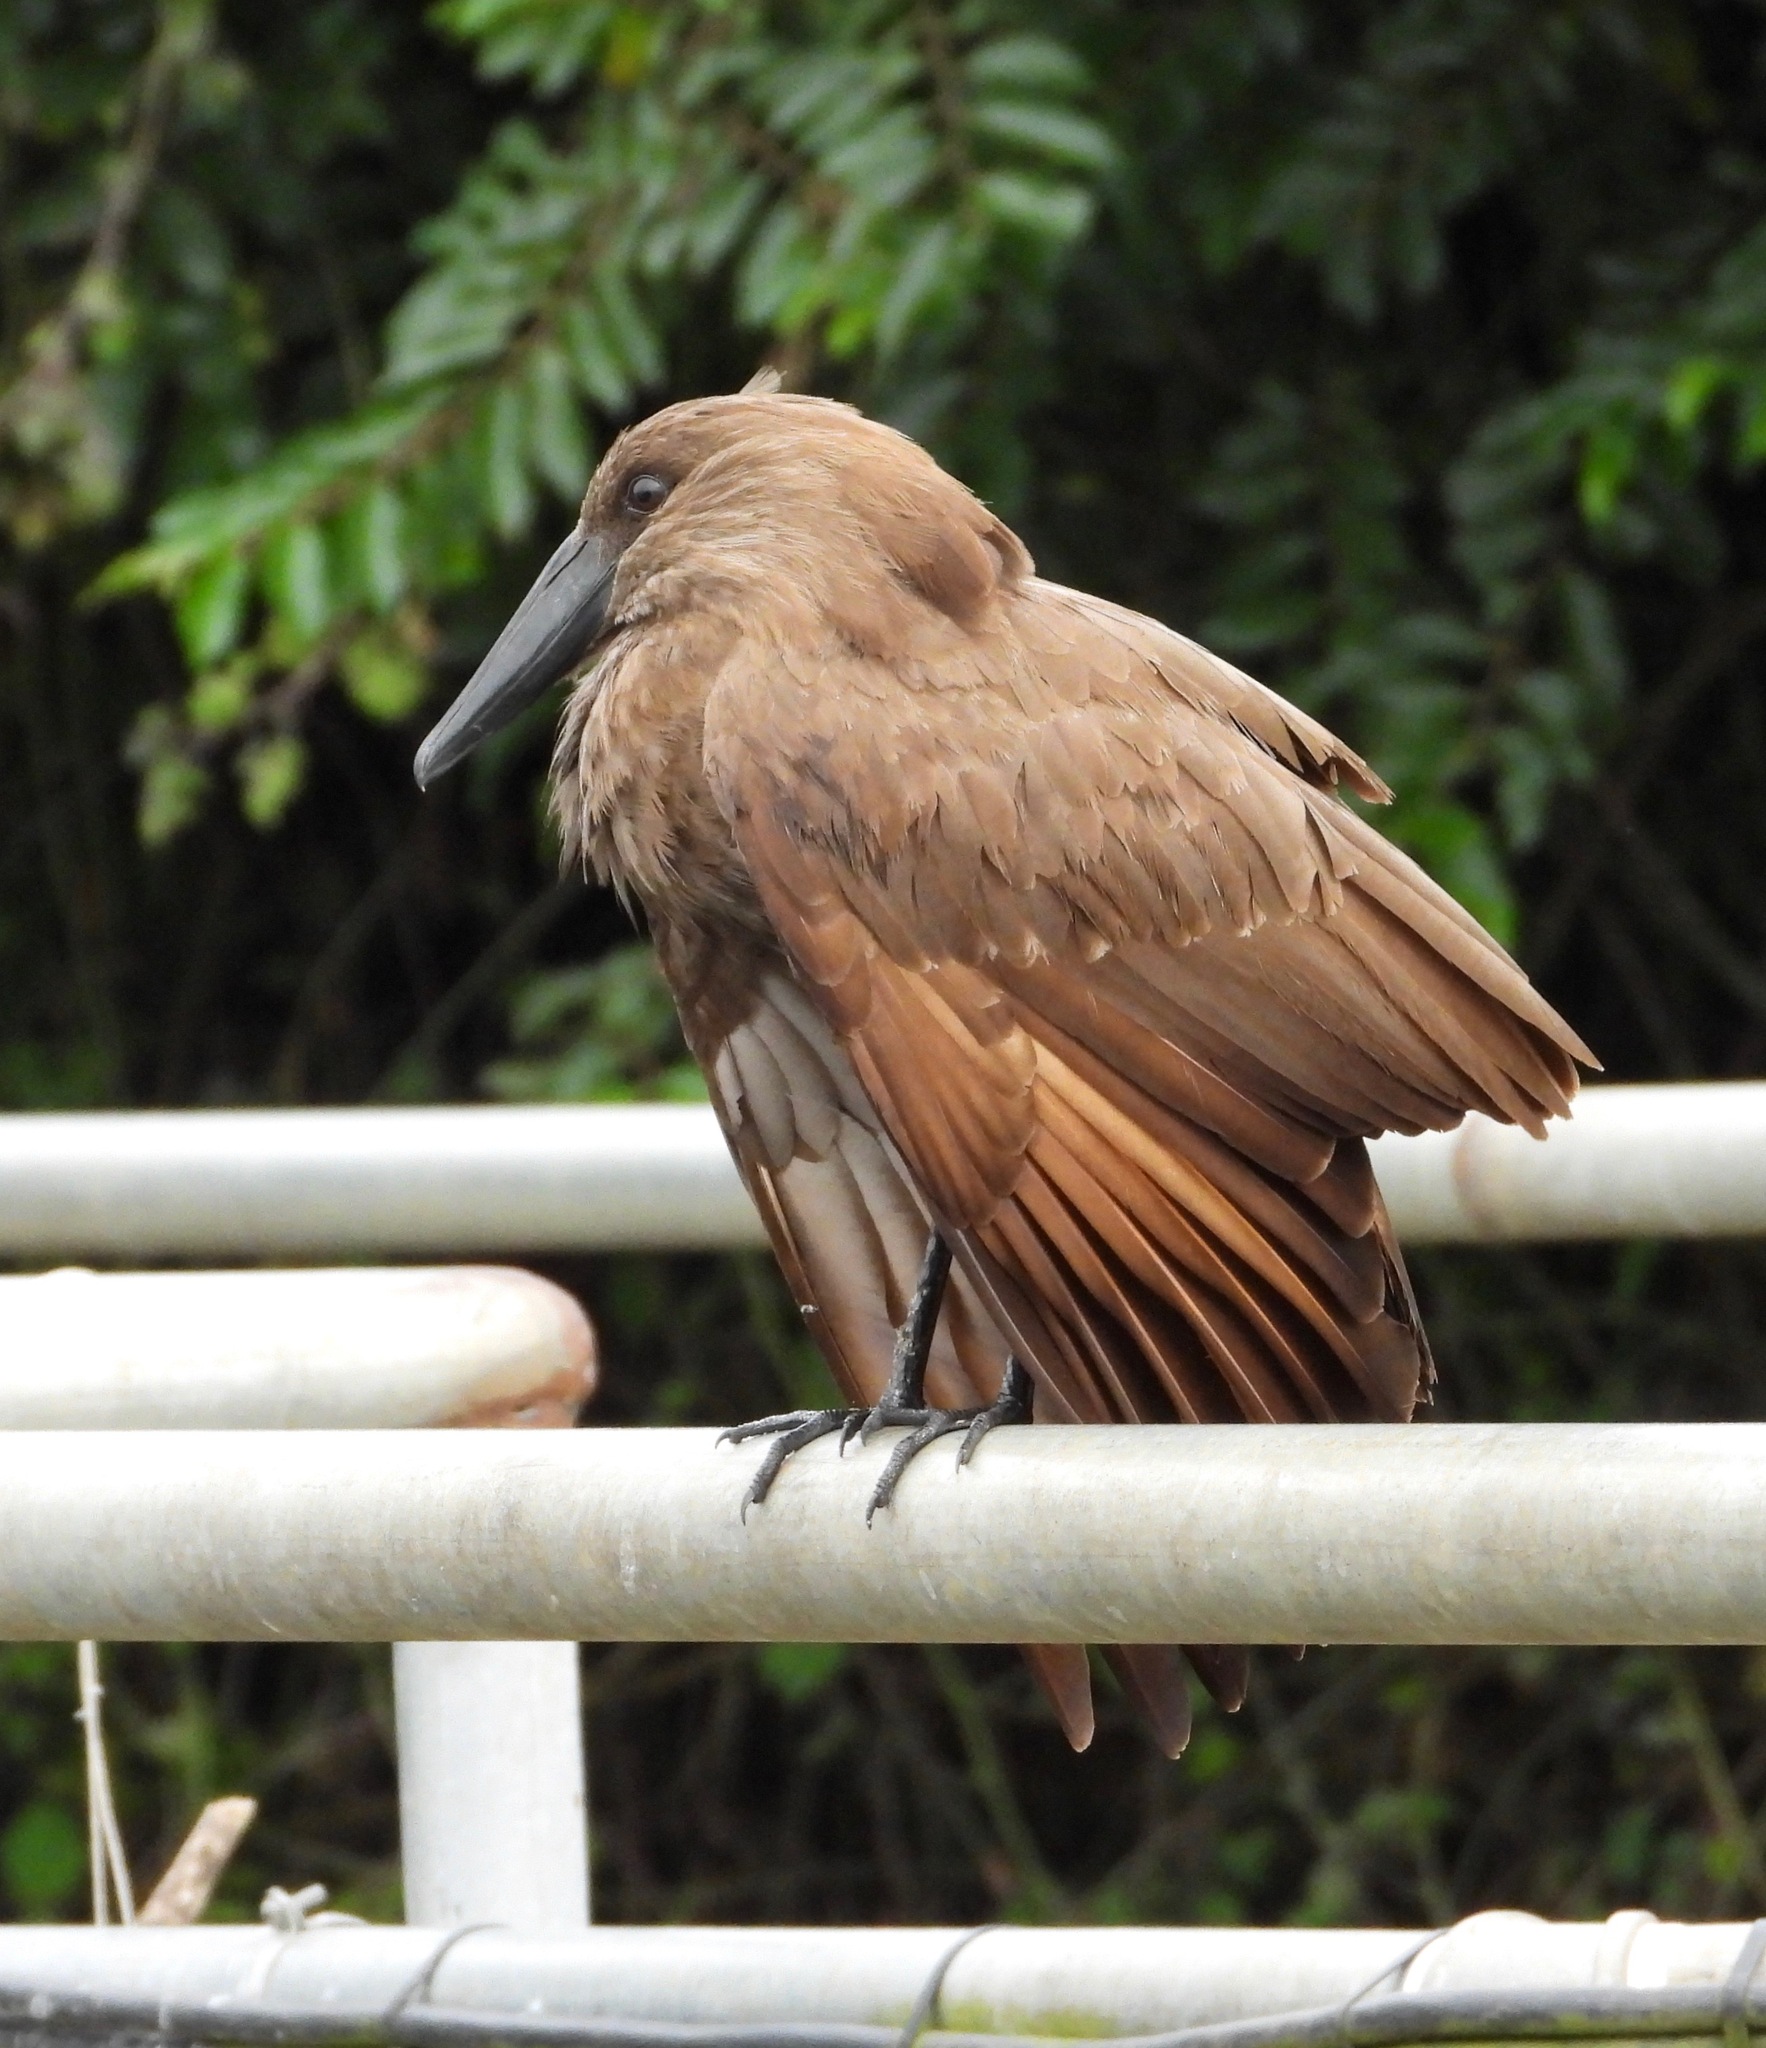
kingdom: Animalia
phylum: Chordata
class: Aves
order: Pelecaniformes
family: Scopidae
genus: Scopus
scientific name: Scopus umbretta
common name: Hamerkop
